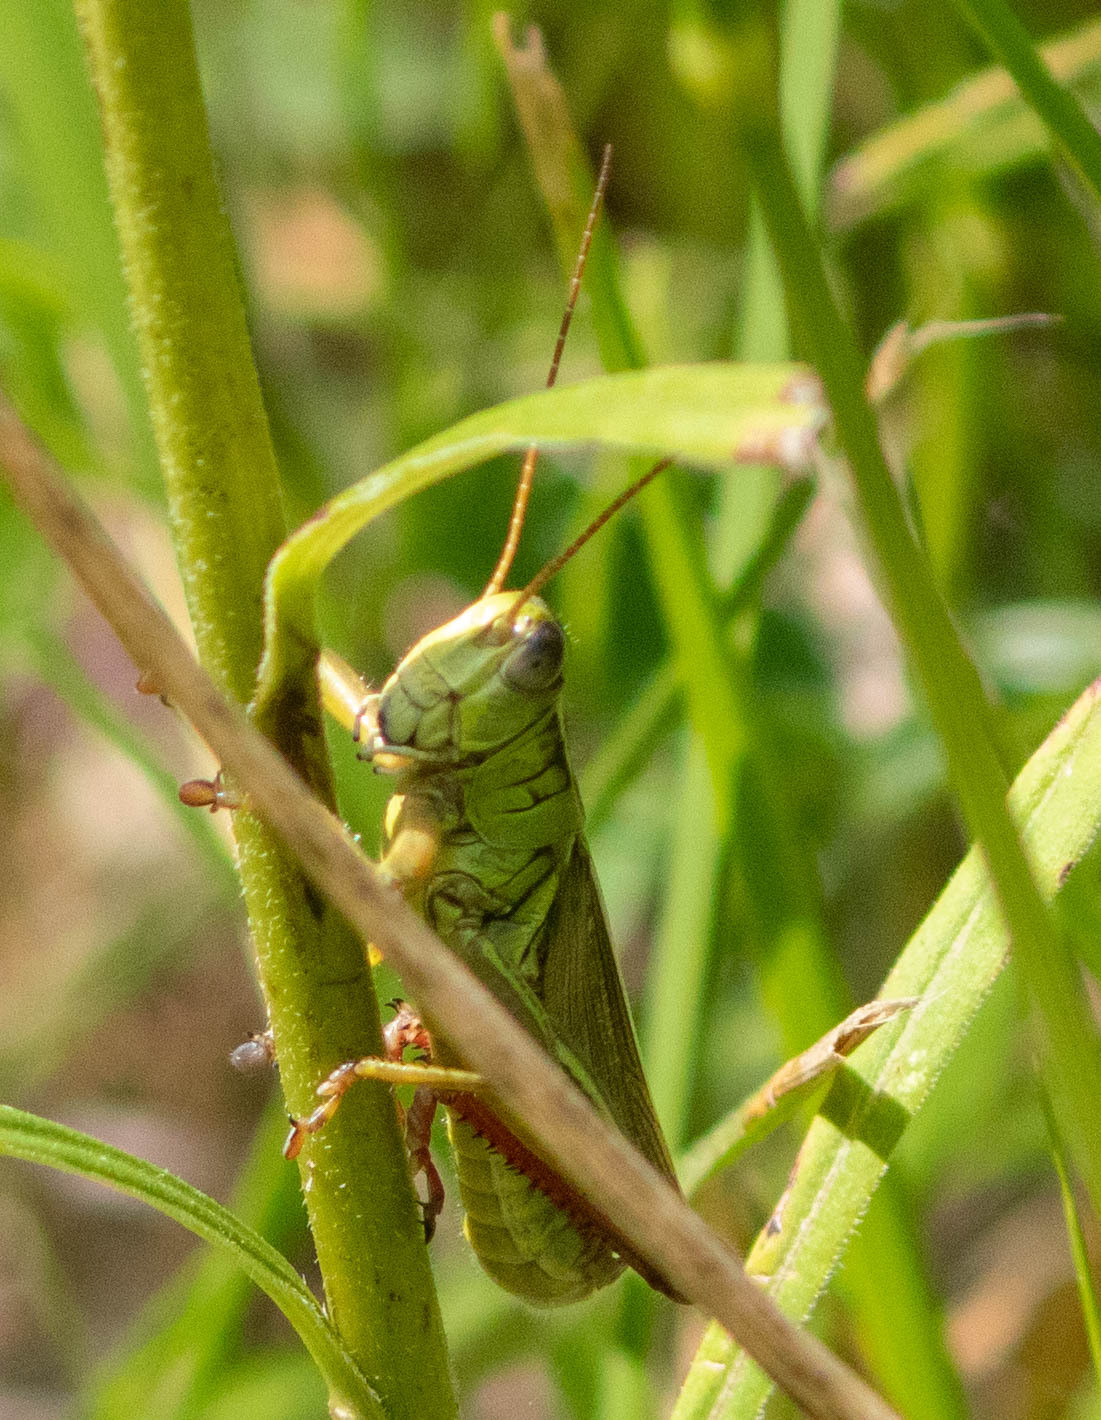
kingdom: Animalia
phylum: Arthropoda
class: Insecta
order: Orthoptera
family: Acrididae
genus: Melanoplus
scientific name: Melanoplus bivittatus
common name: Two-striped grasshopper
